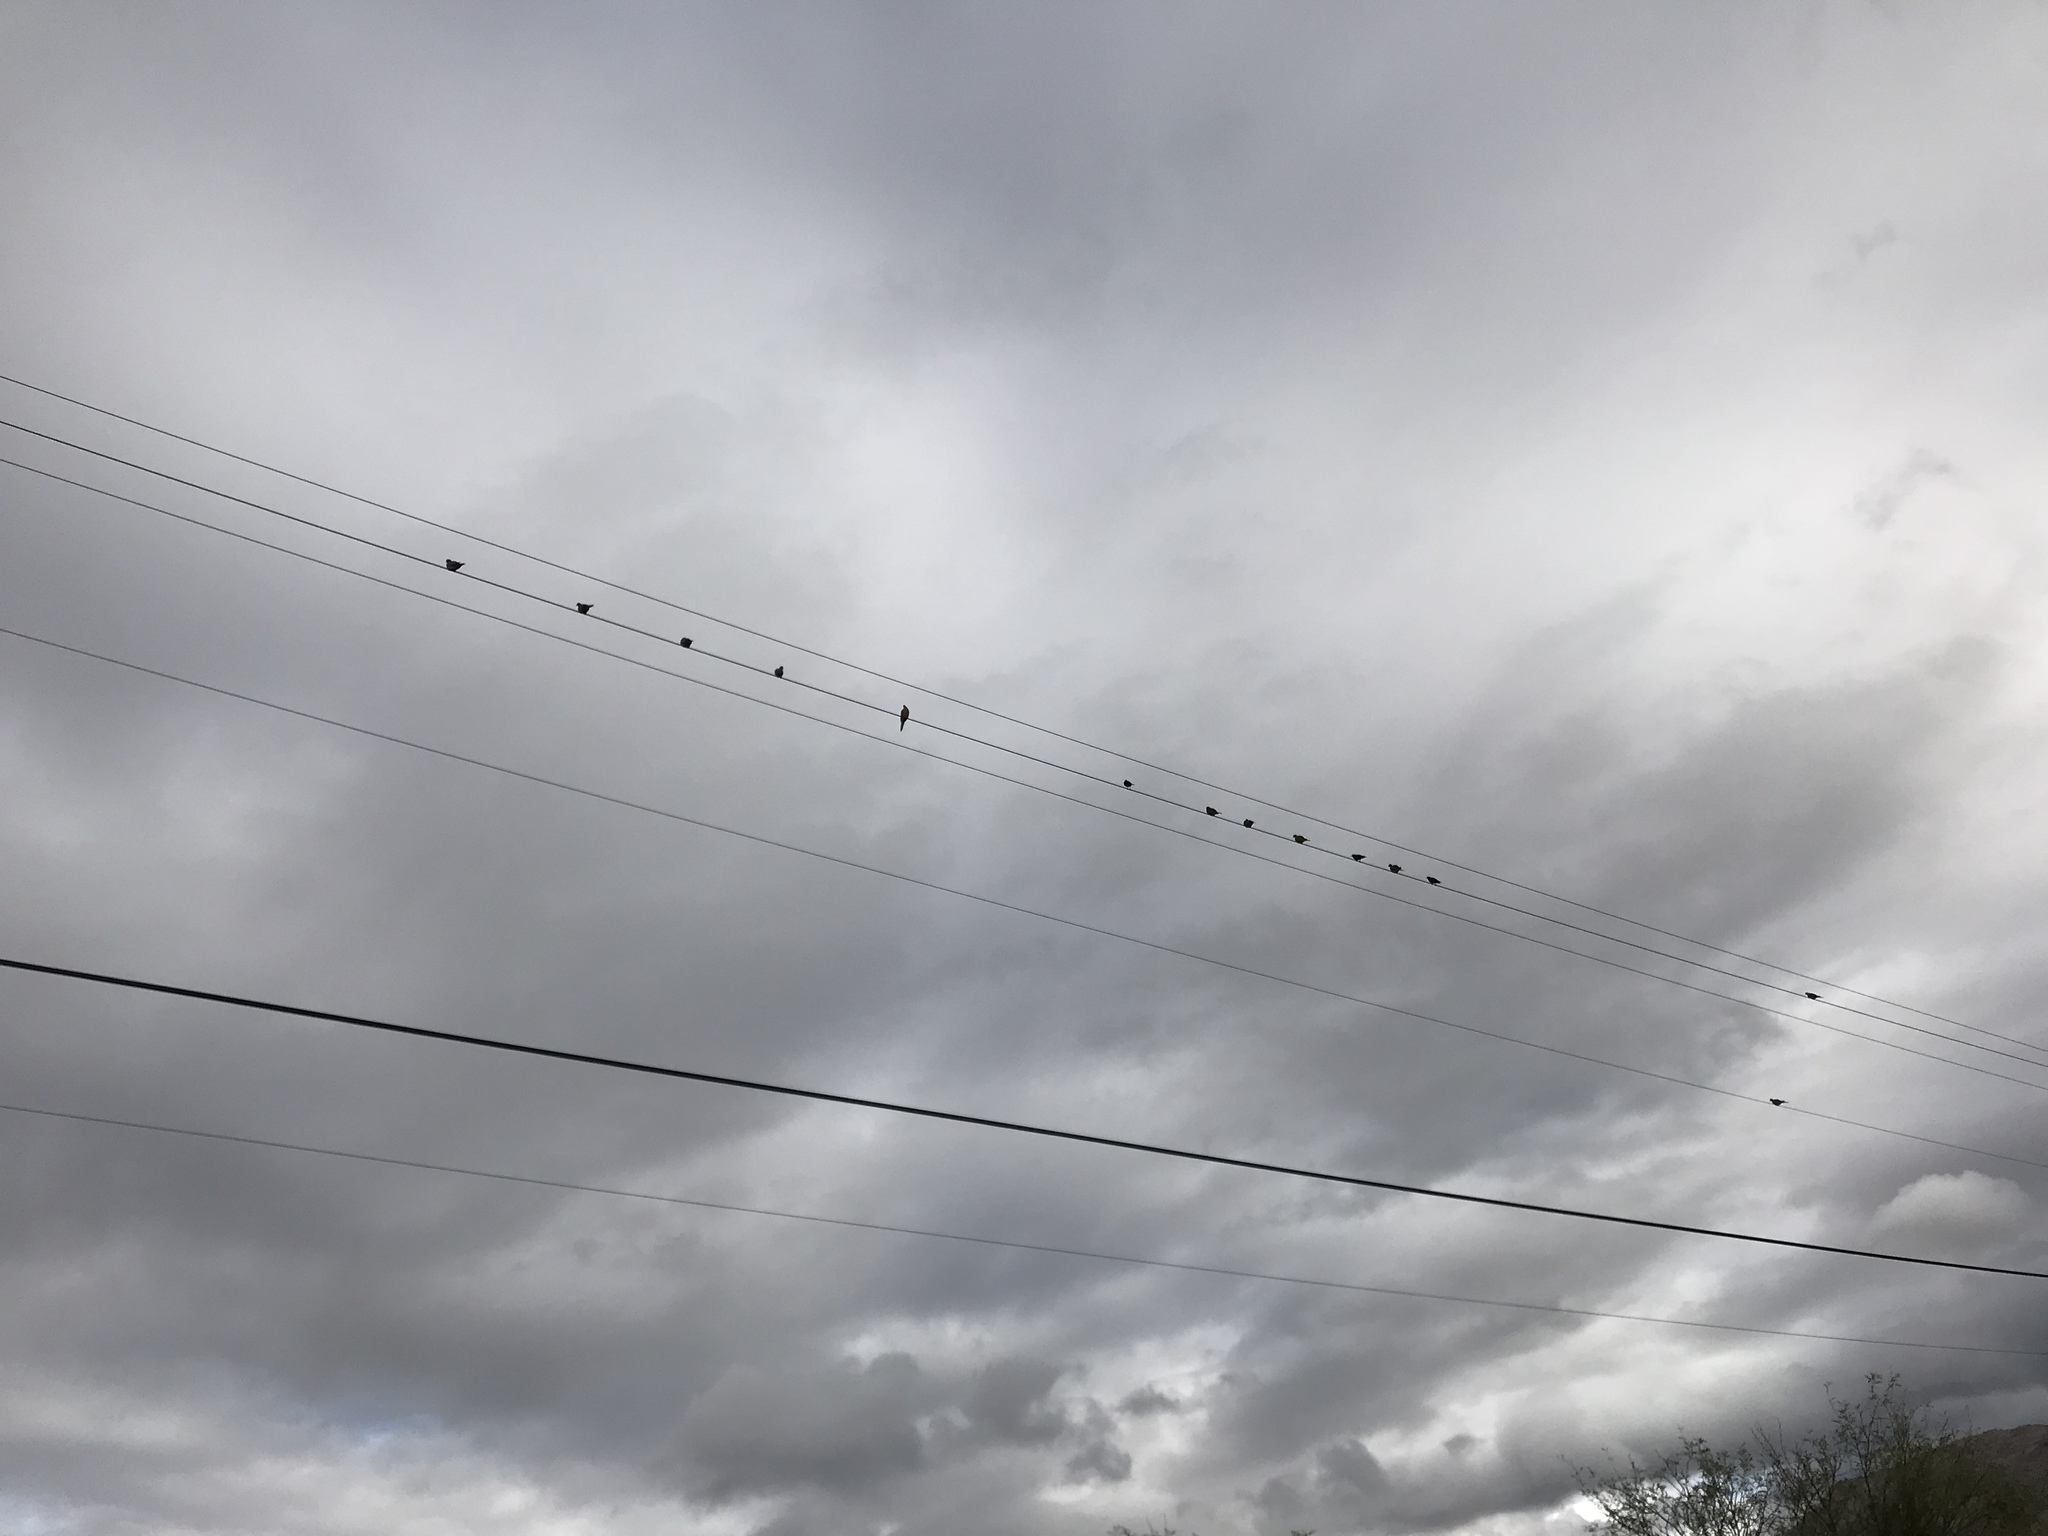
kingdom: Animalia
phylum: Chordata
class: Aves
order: Columbiformes
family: Columbidae
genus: Zenaida
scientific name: Zenaida macroura
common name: Mourning dove
